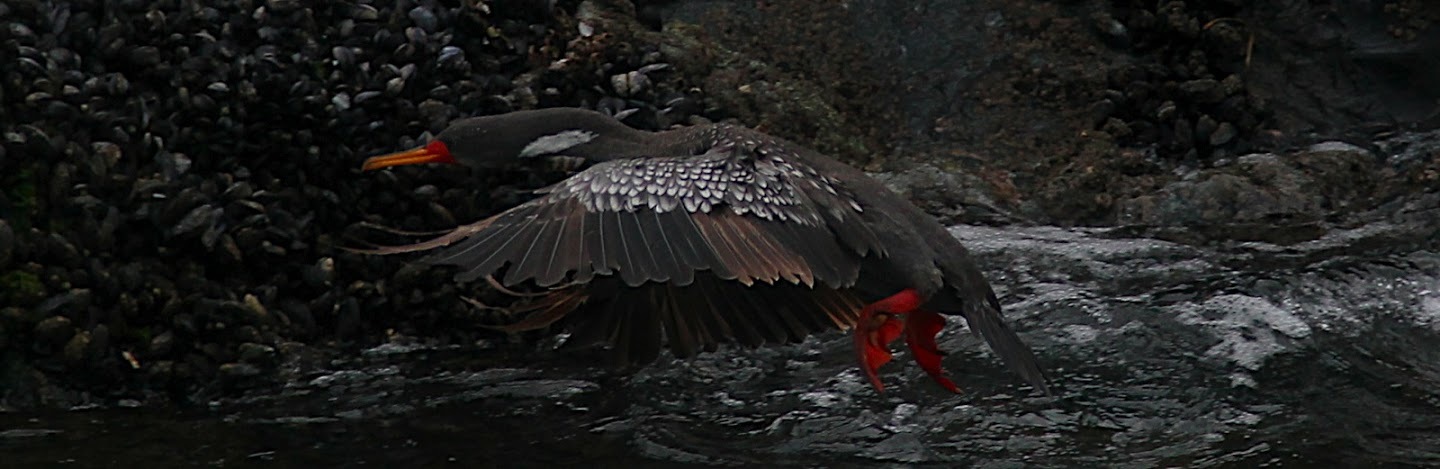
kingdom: Animalia
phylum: Chordata
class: Aves
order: Suliformes
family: Phalacrocoracidae
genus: Phalacrocorax
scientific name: Phalacrocorax gaimardi
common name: Red-legged cormorant
